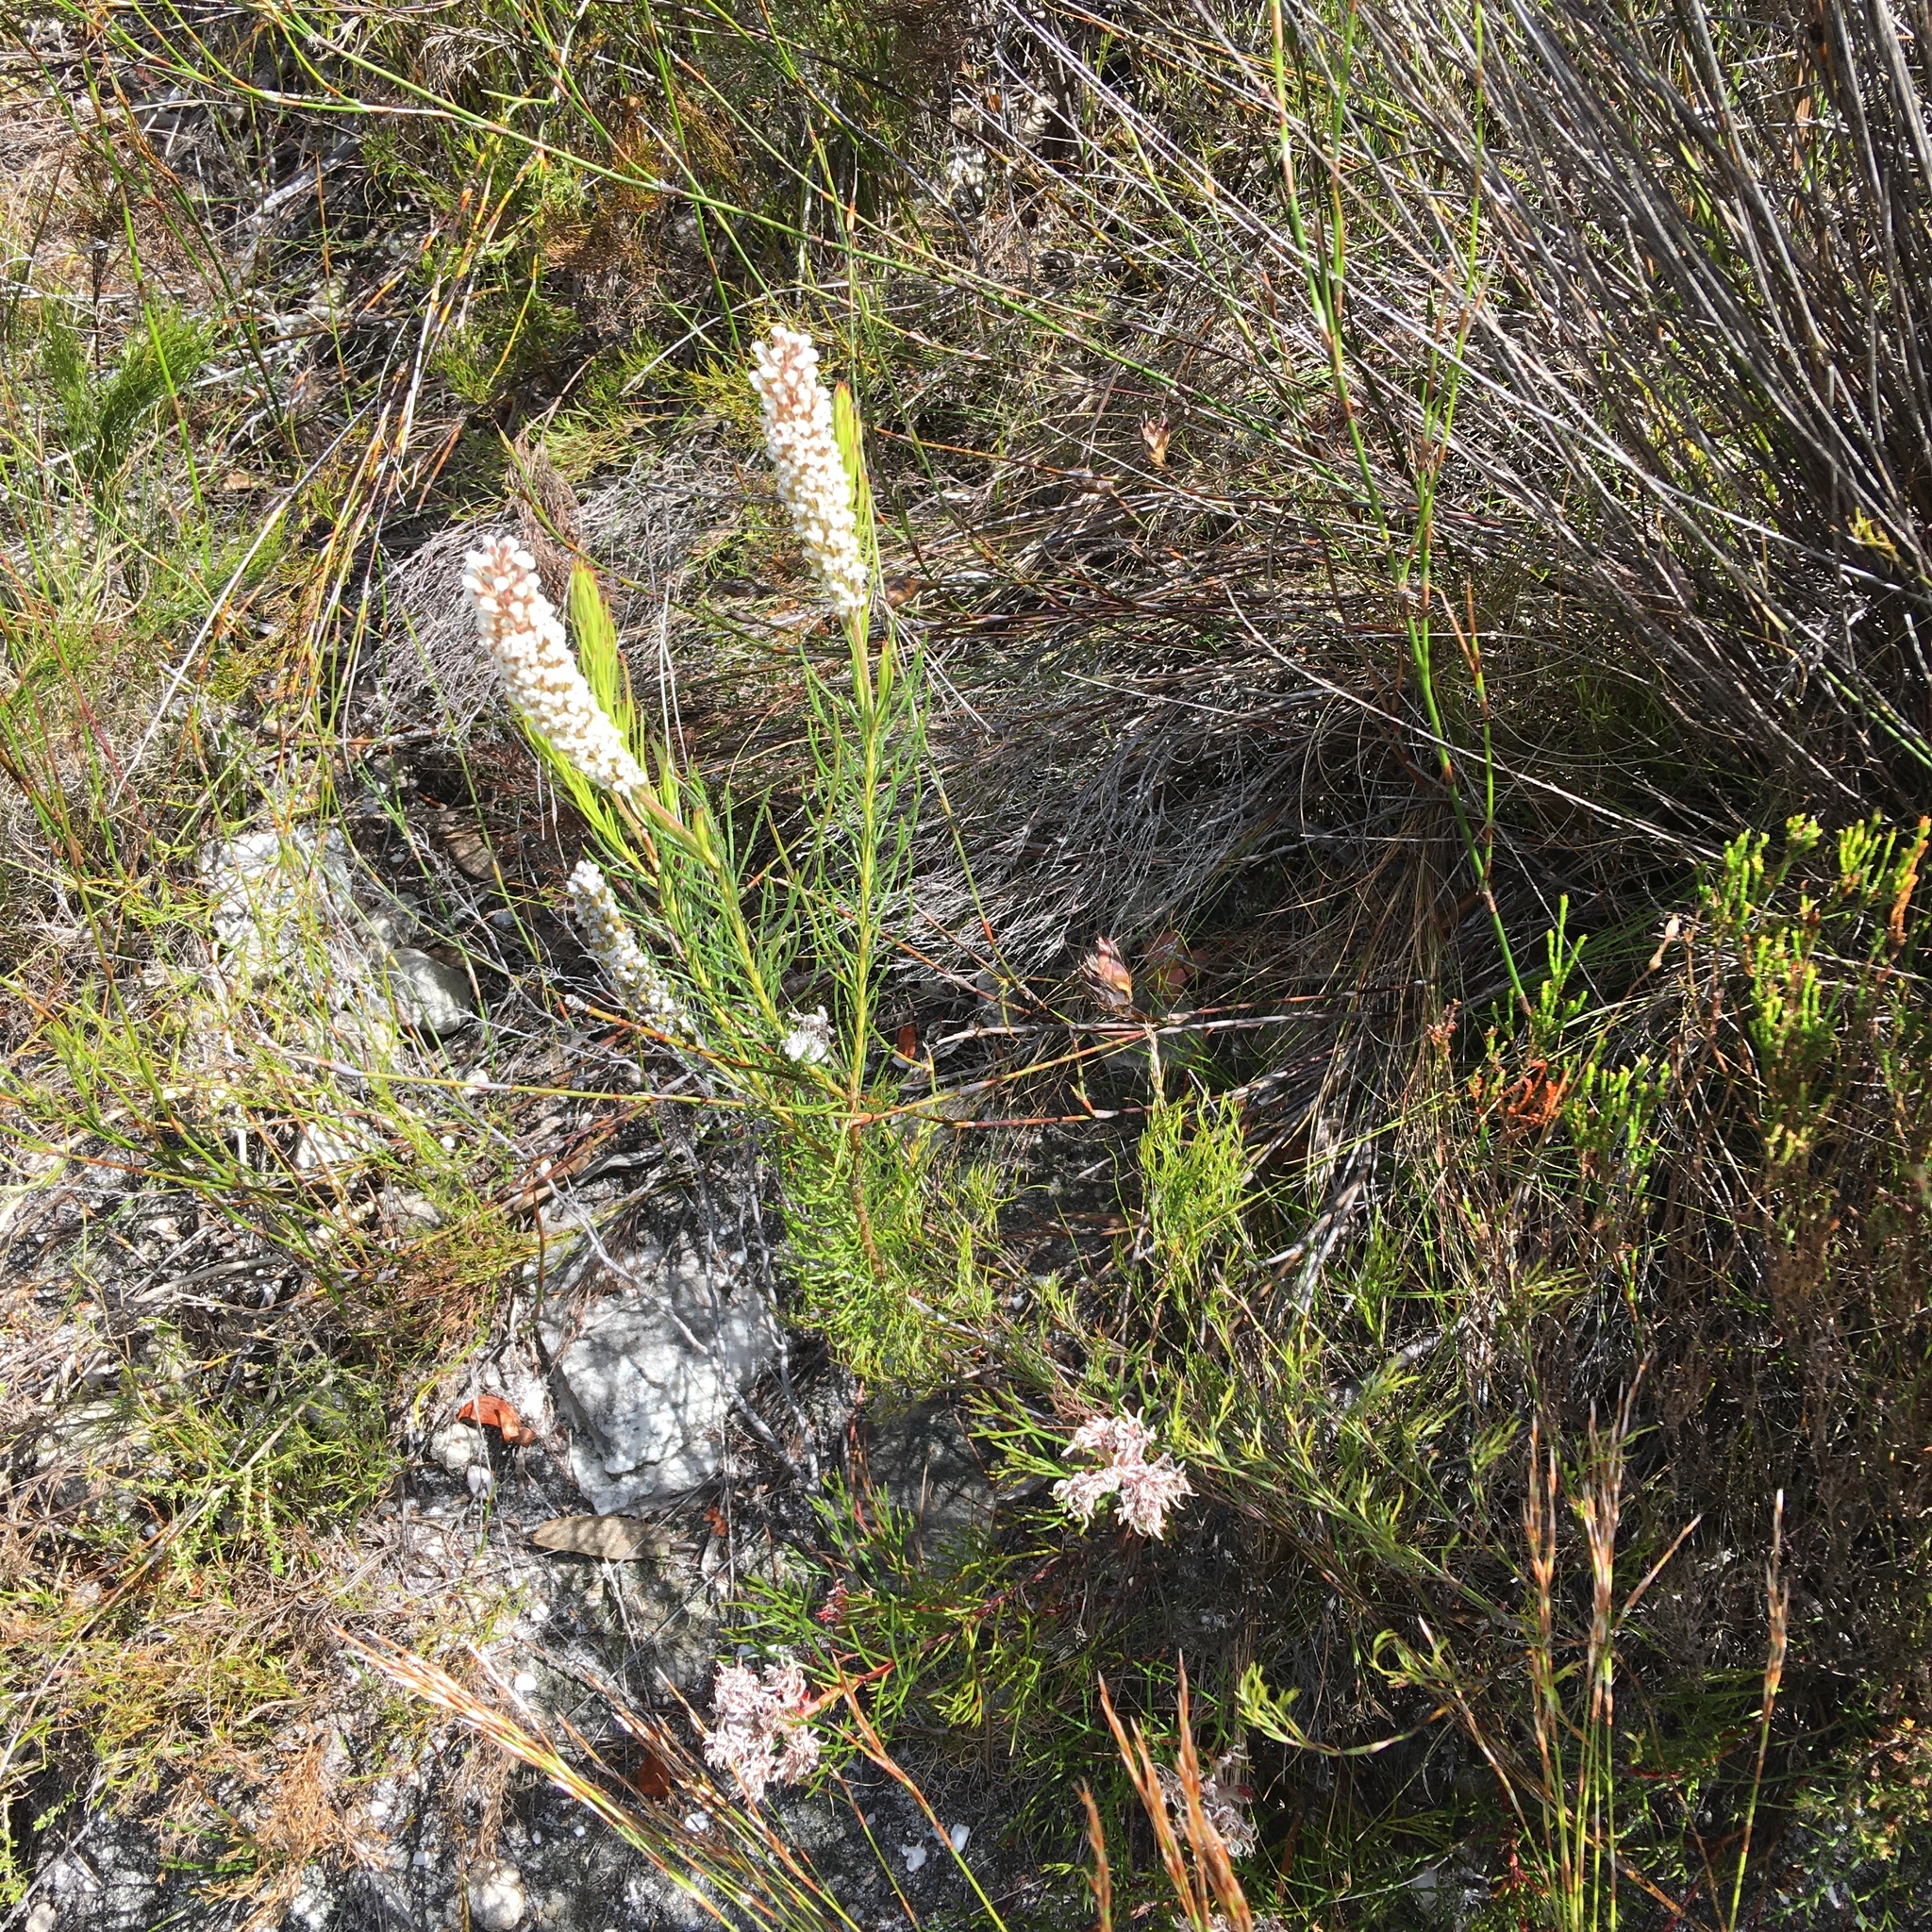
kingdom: Plantae
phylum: Tracheophyta
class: Magnoliopsida
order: Proteales
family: Proteaceae
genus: Spatalla
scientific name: Spatalla curvifolia
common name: White-stalked spoon
